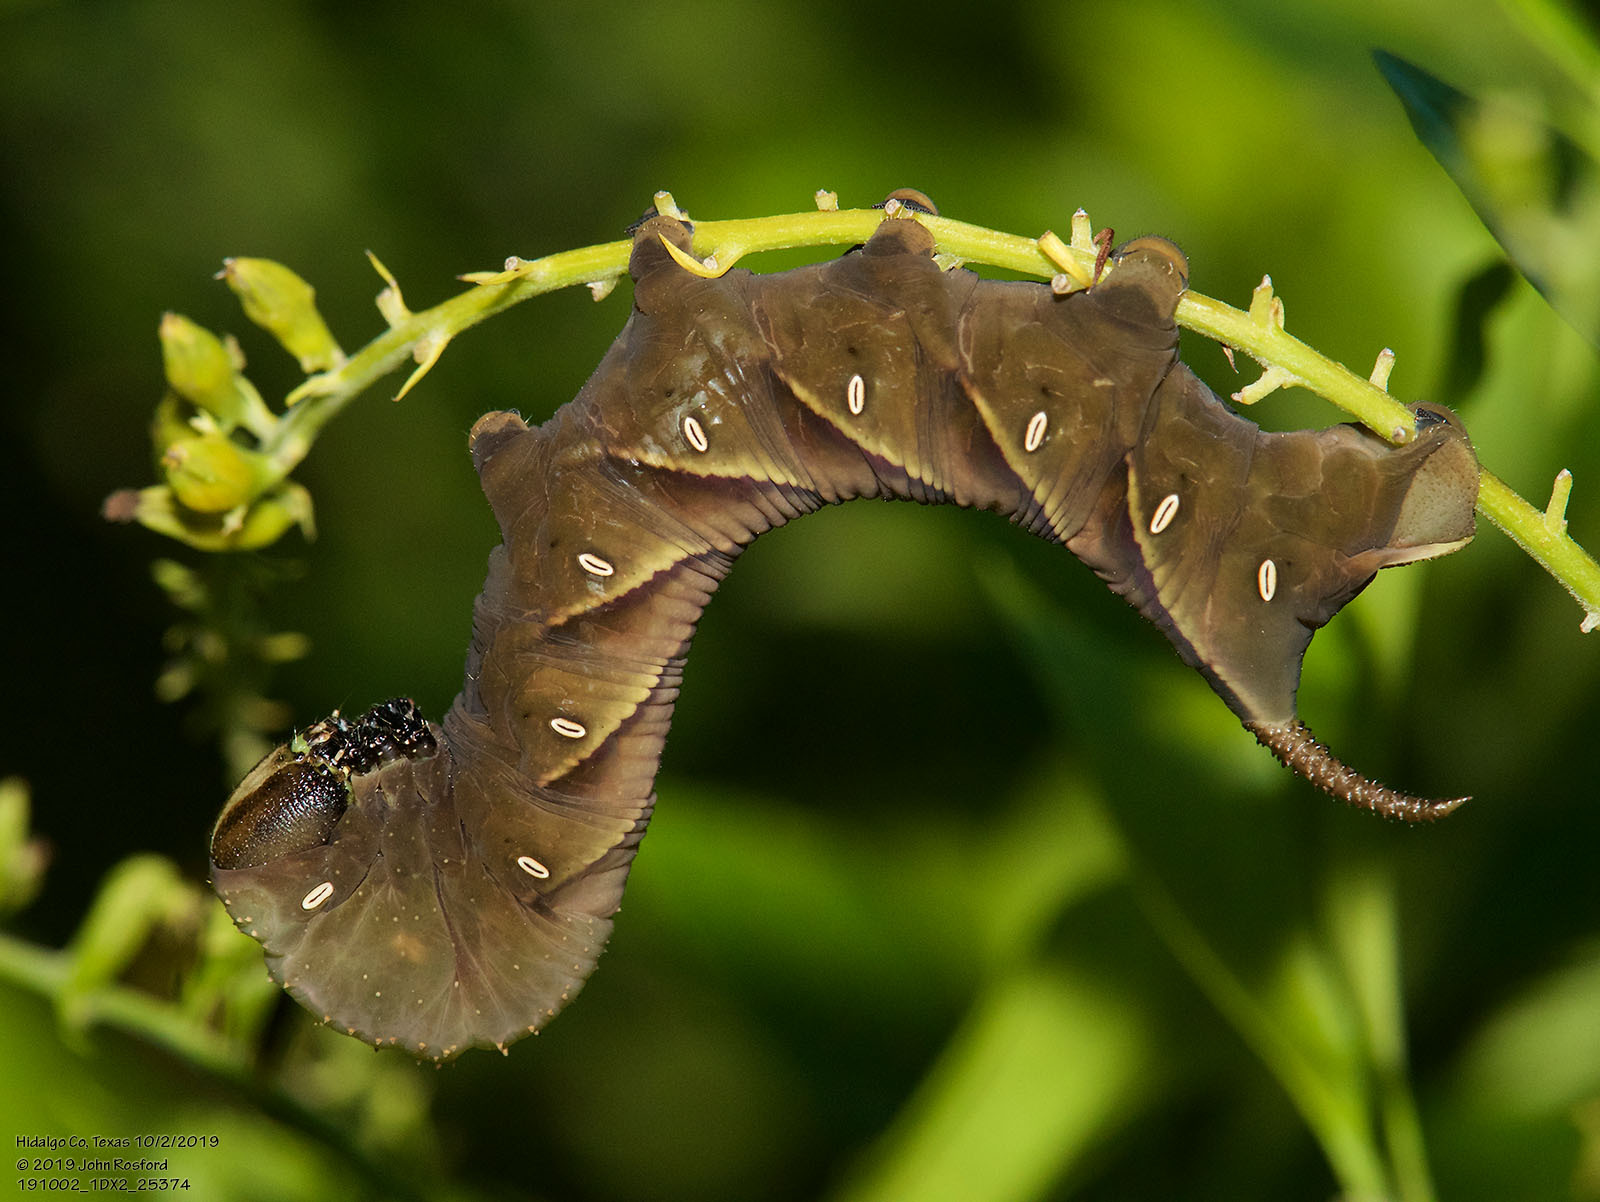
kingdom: Animalia
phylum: Arthropoda
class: Insecta
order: Lepidoptera
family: Sphingidae
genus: Manduca
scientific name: Manduca rustica
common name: Rustic sphinx
